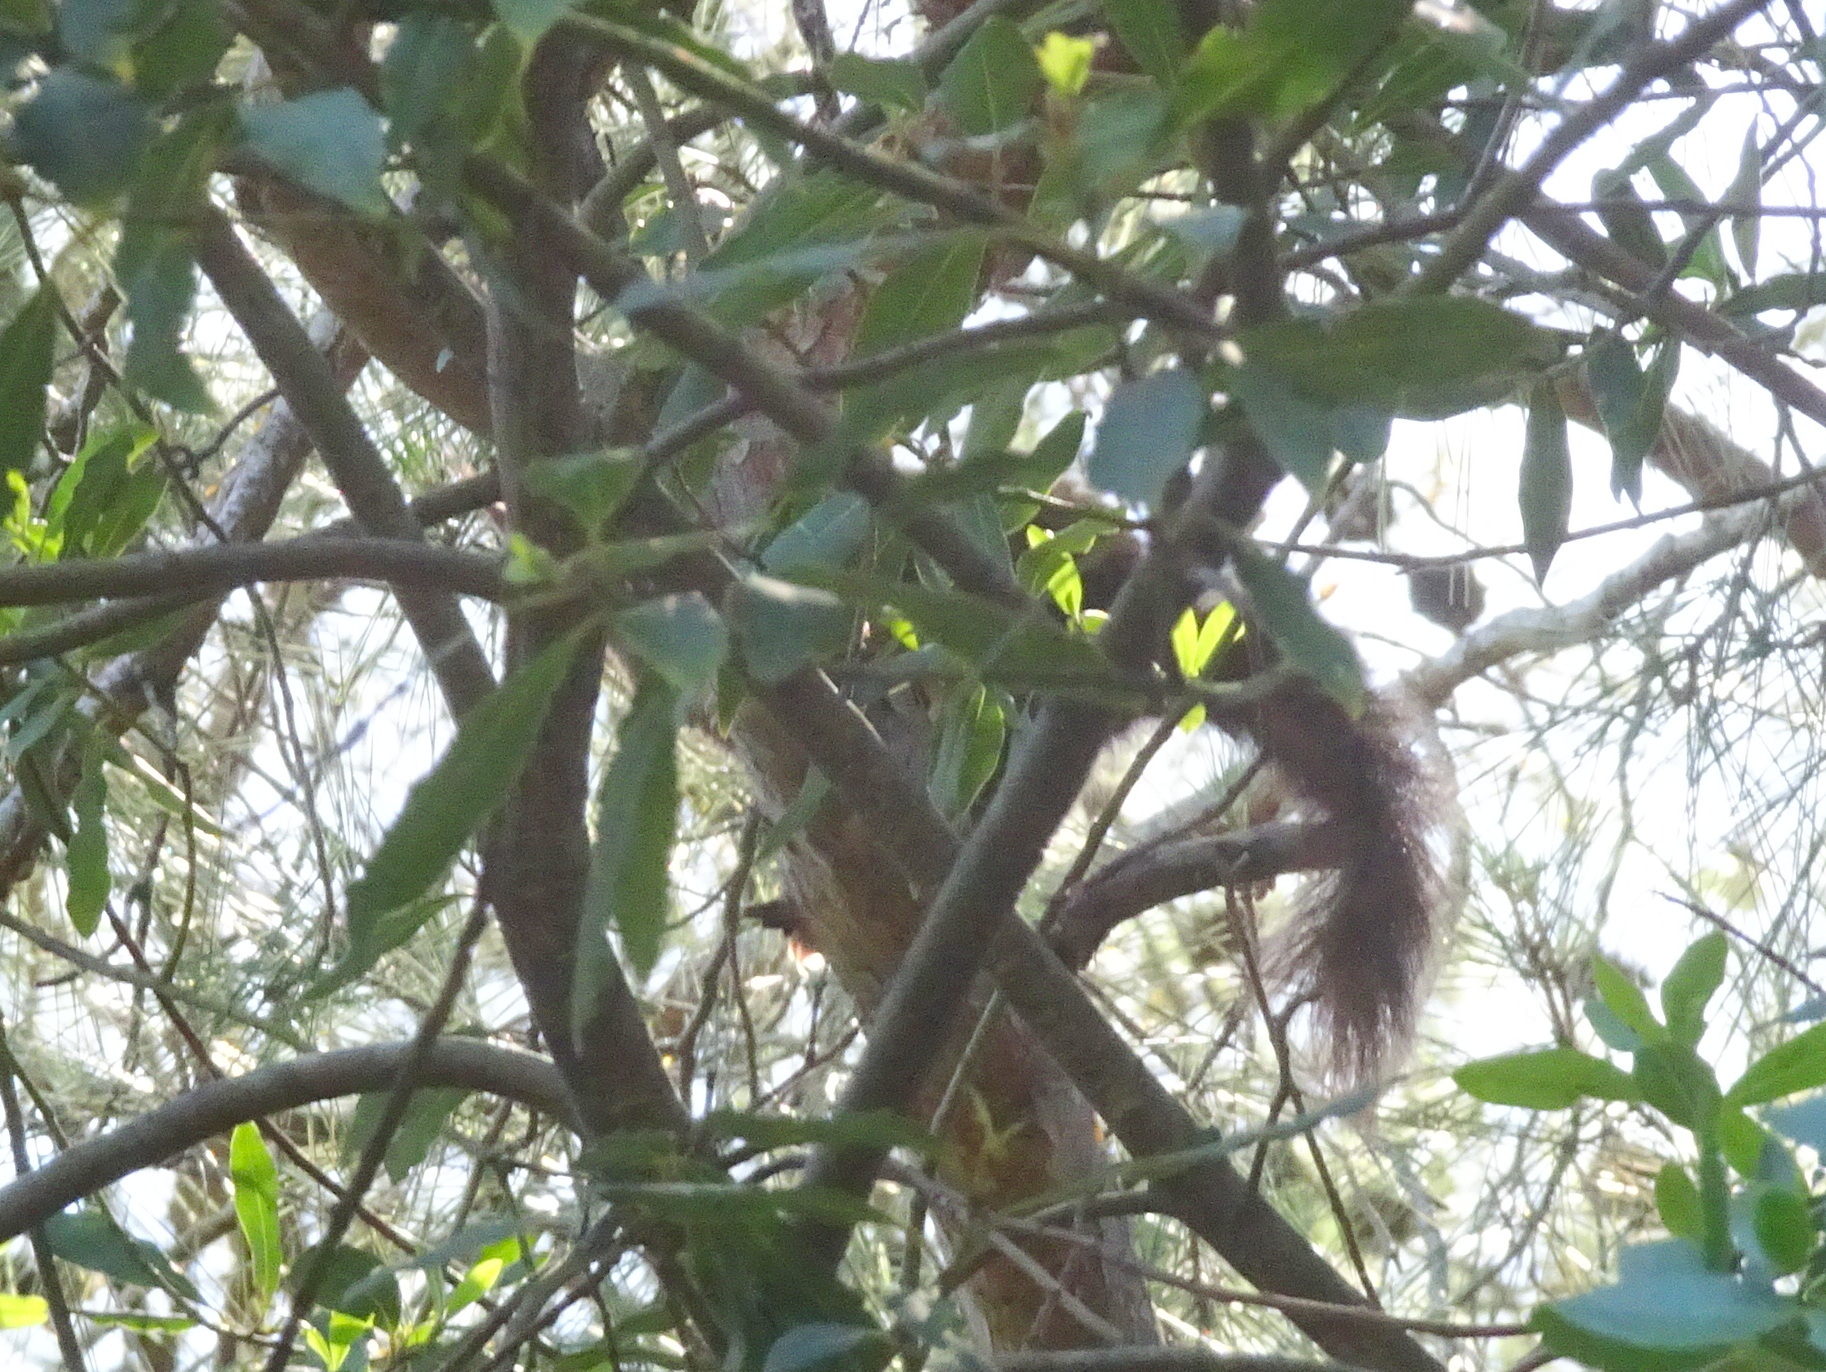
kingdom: Animalia
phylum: Chordata
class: Mammalia
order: Rodentia
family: Sciuridae
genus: Sciurus
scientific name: Sciurus vulgaris
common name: Eurasian red squirrel
